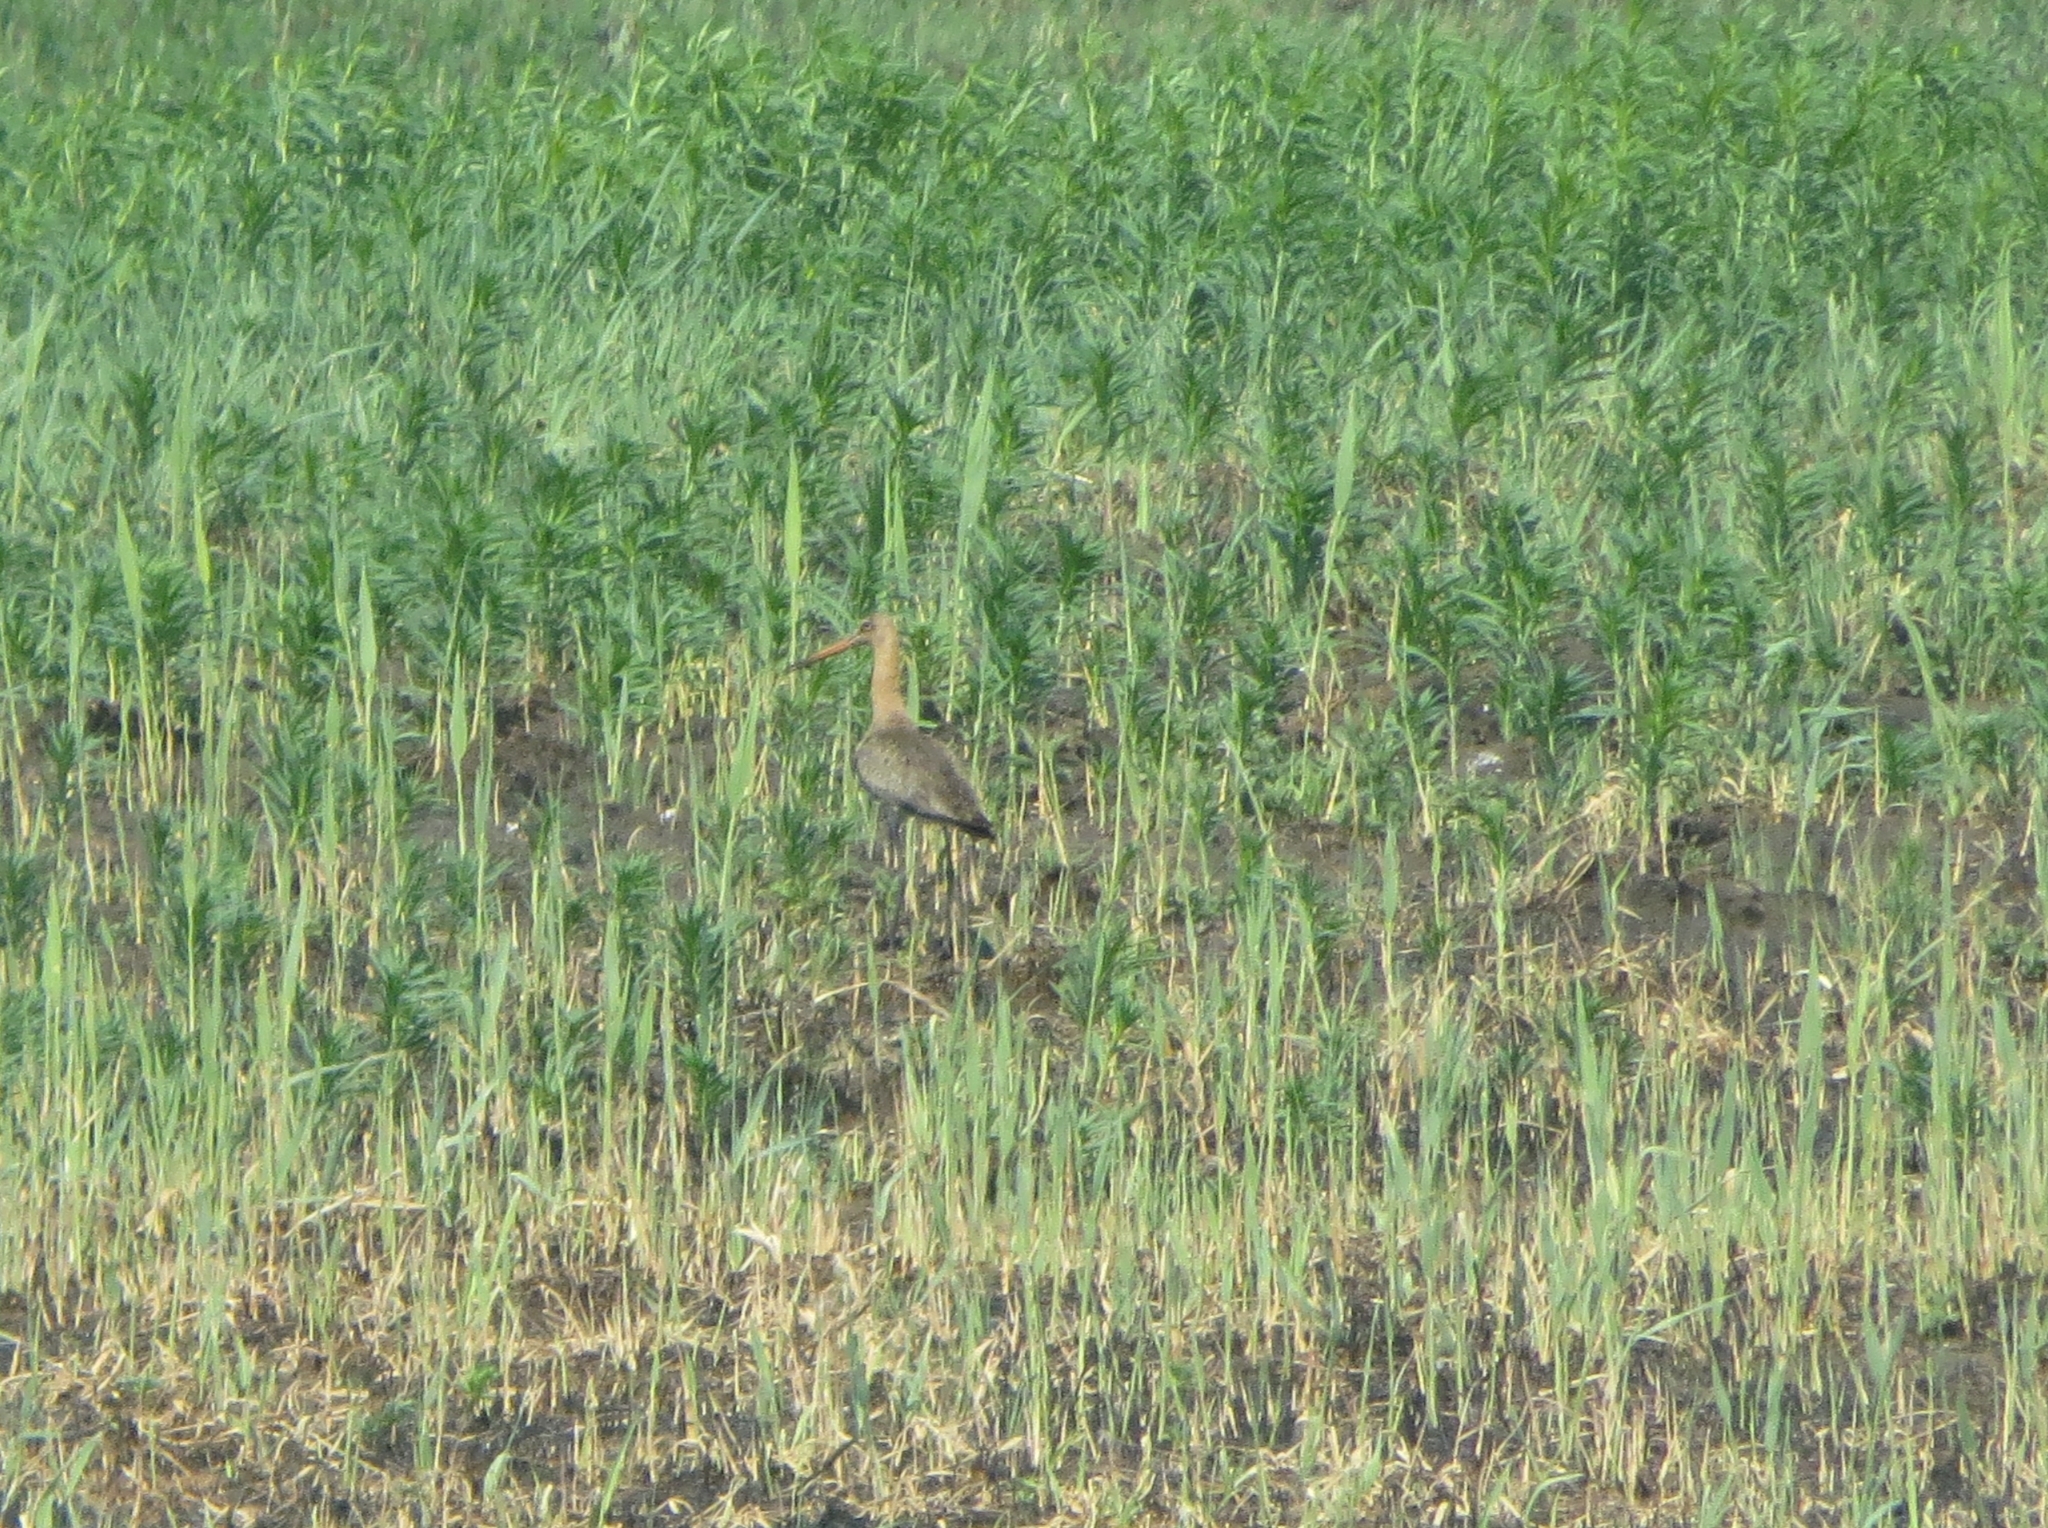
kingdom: Animalia
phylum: Chordata
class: Aves
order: Charadriiformes
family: Scolopacidae
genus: Limosa
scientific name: Limosa limosa
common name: Black-tailed godwit
